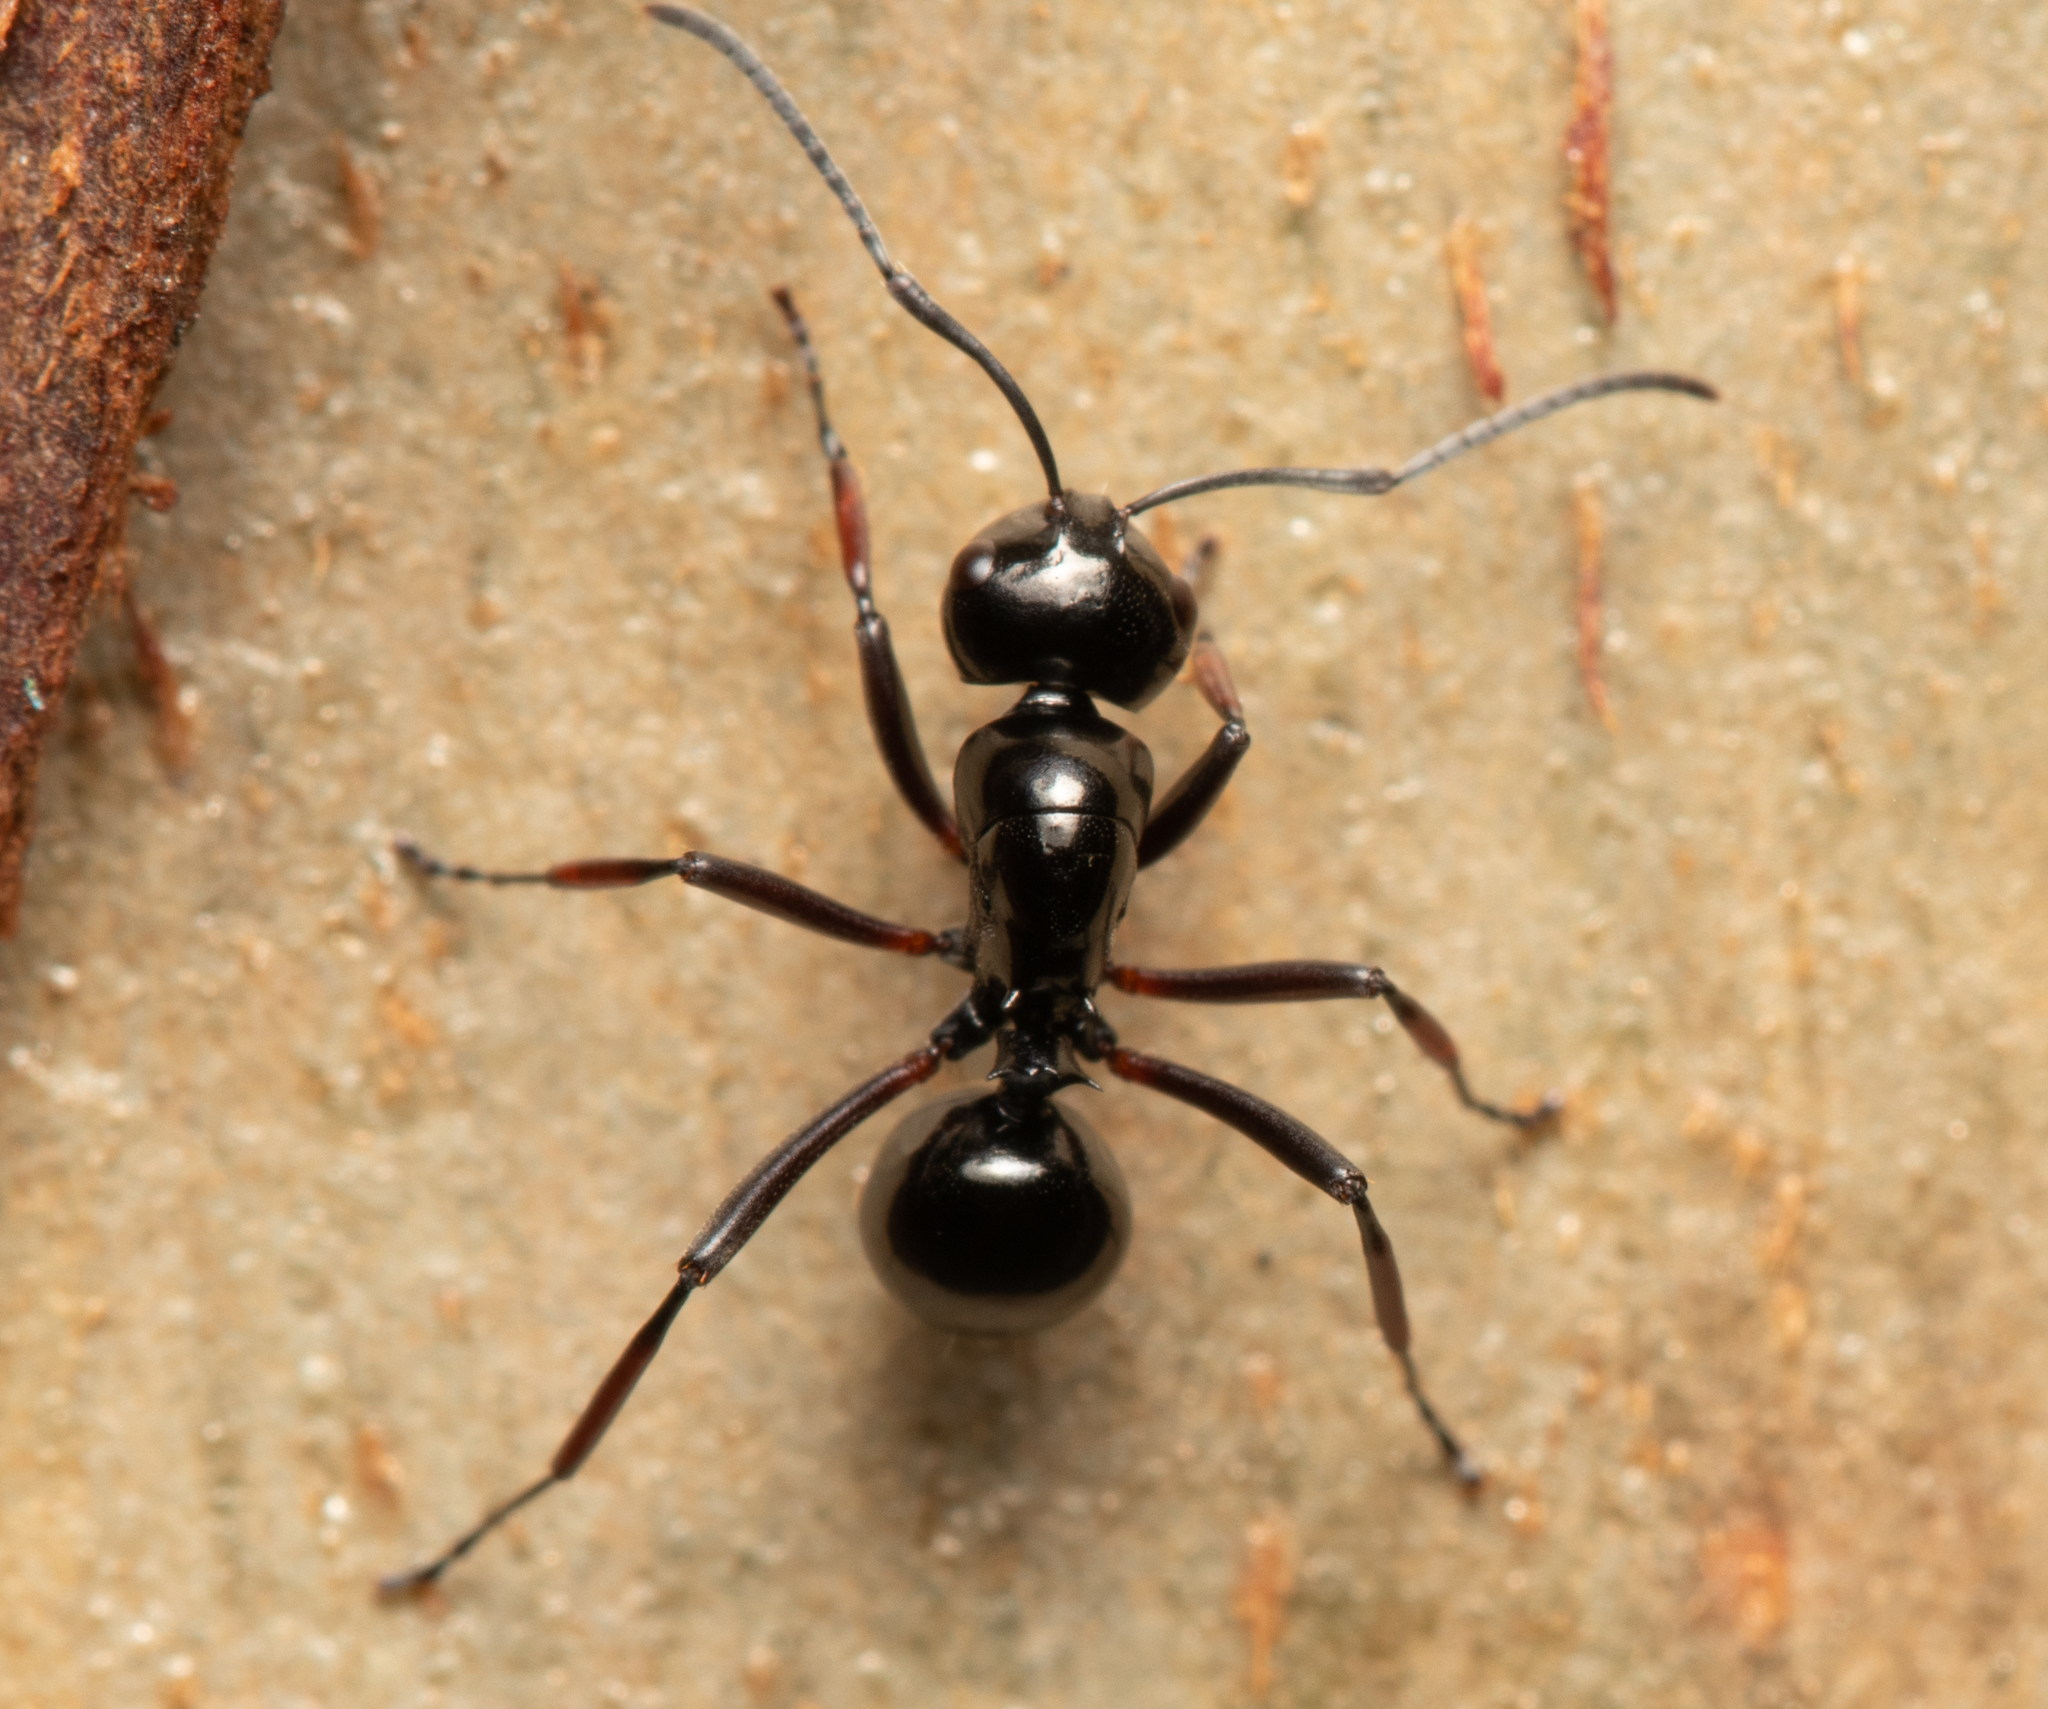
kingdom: Animalia
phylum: Arthropoda
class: Insecta
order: Hymenoptera
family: Formicidae
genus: Polyrhachis
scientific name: Polyrhachis australis
